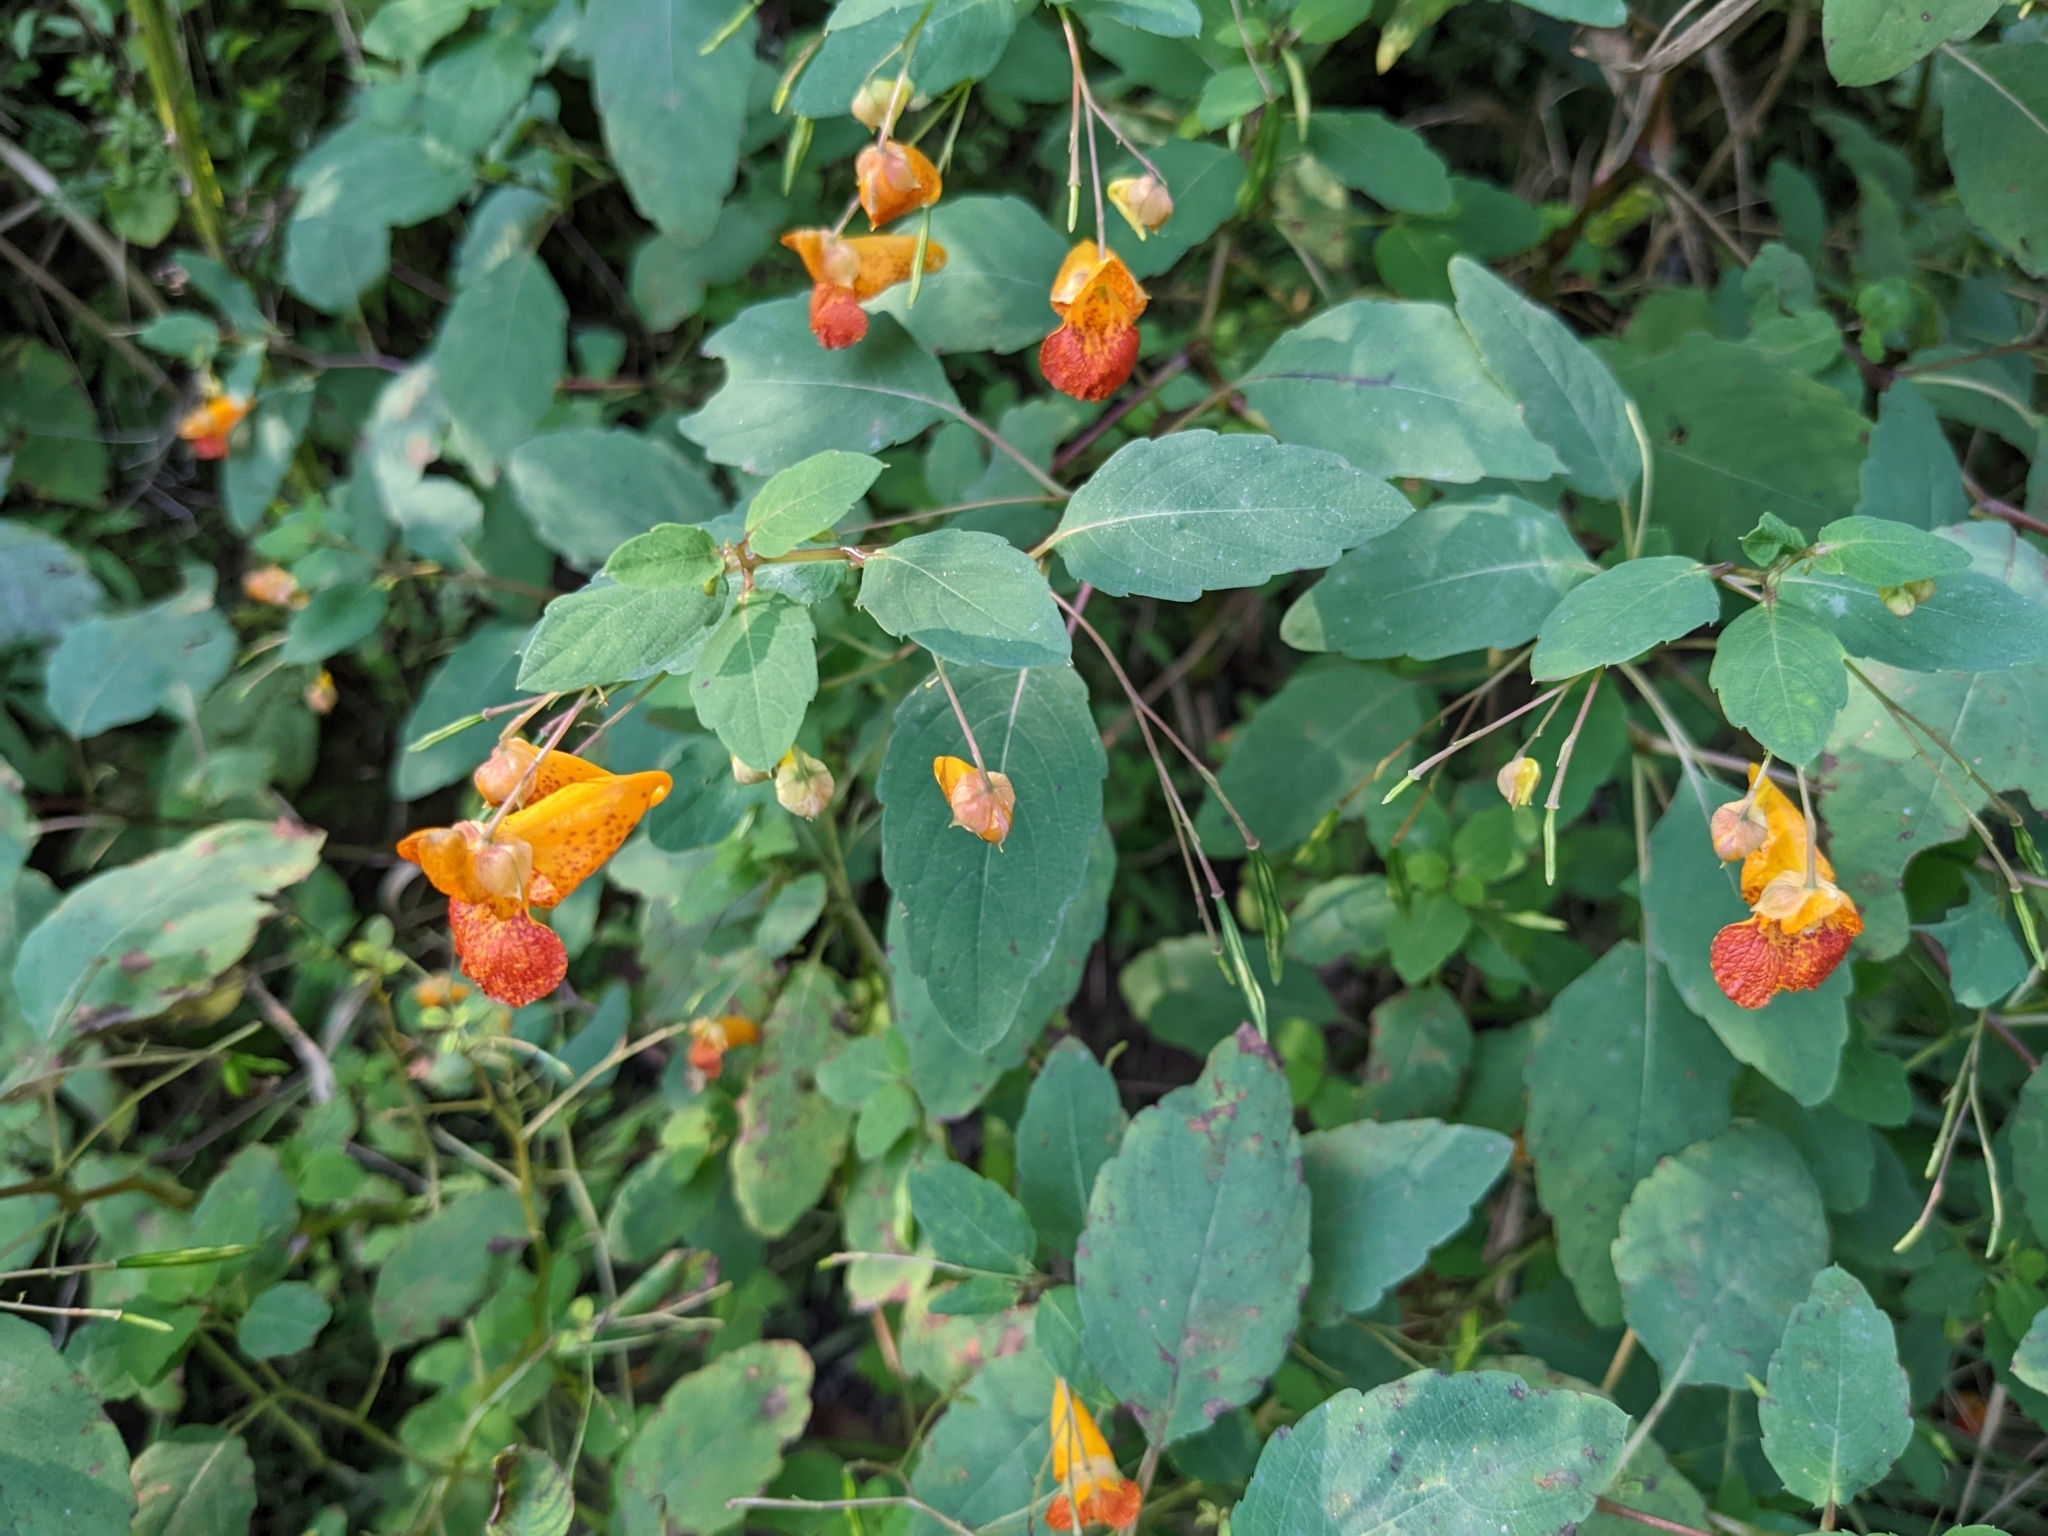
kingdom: Plantae
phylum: Tracheophyta
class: Magnoliopsida
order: Ericales
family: Balsaminaceae
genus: Impatiens
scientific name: Impatiens capensis
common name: Orange balsam
